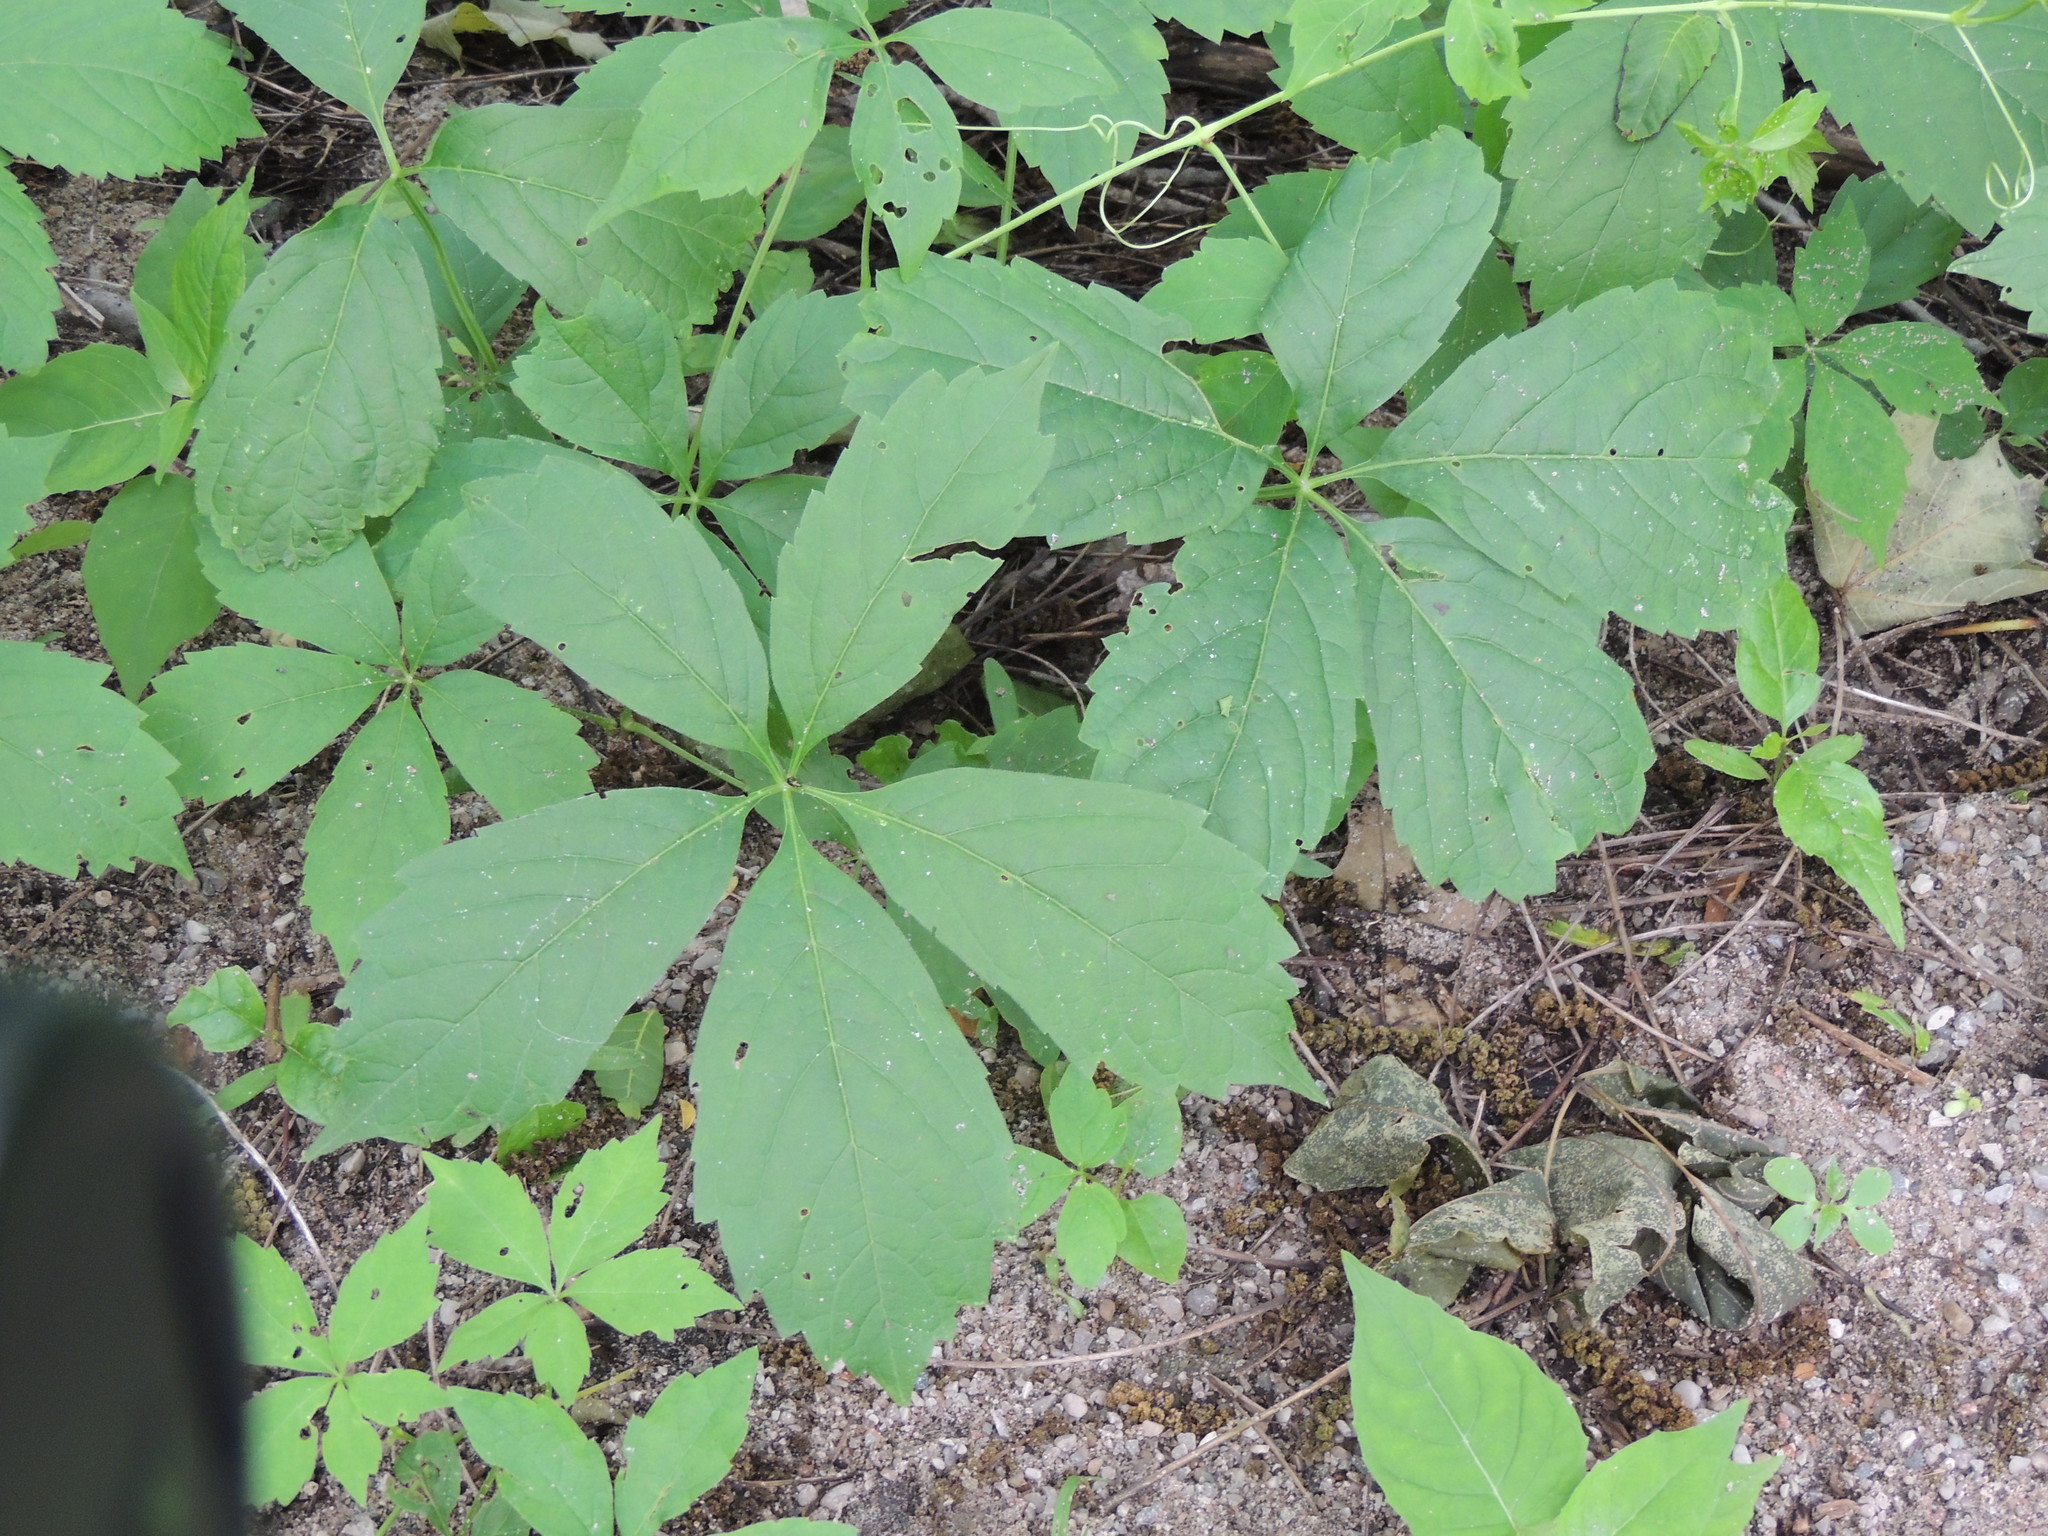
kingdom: Plantae
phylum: Tracheophyta
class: Magnoliopsida
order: Vitales
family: Vitaceae
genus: Parthenocissus
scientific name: Parthenocissus quinquefolia
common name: Virginia-creeper
